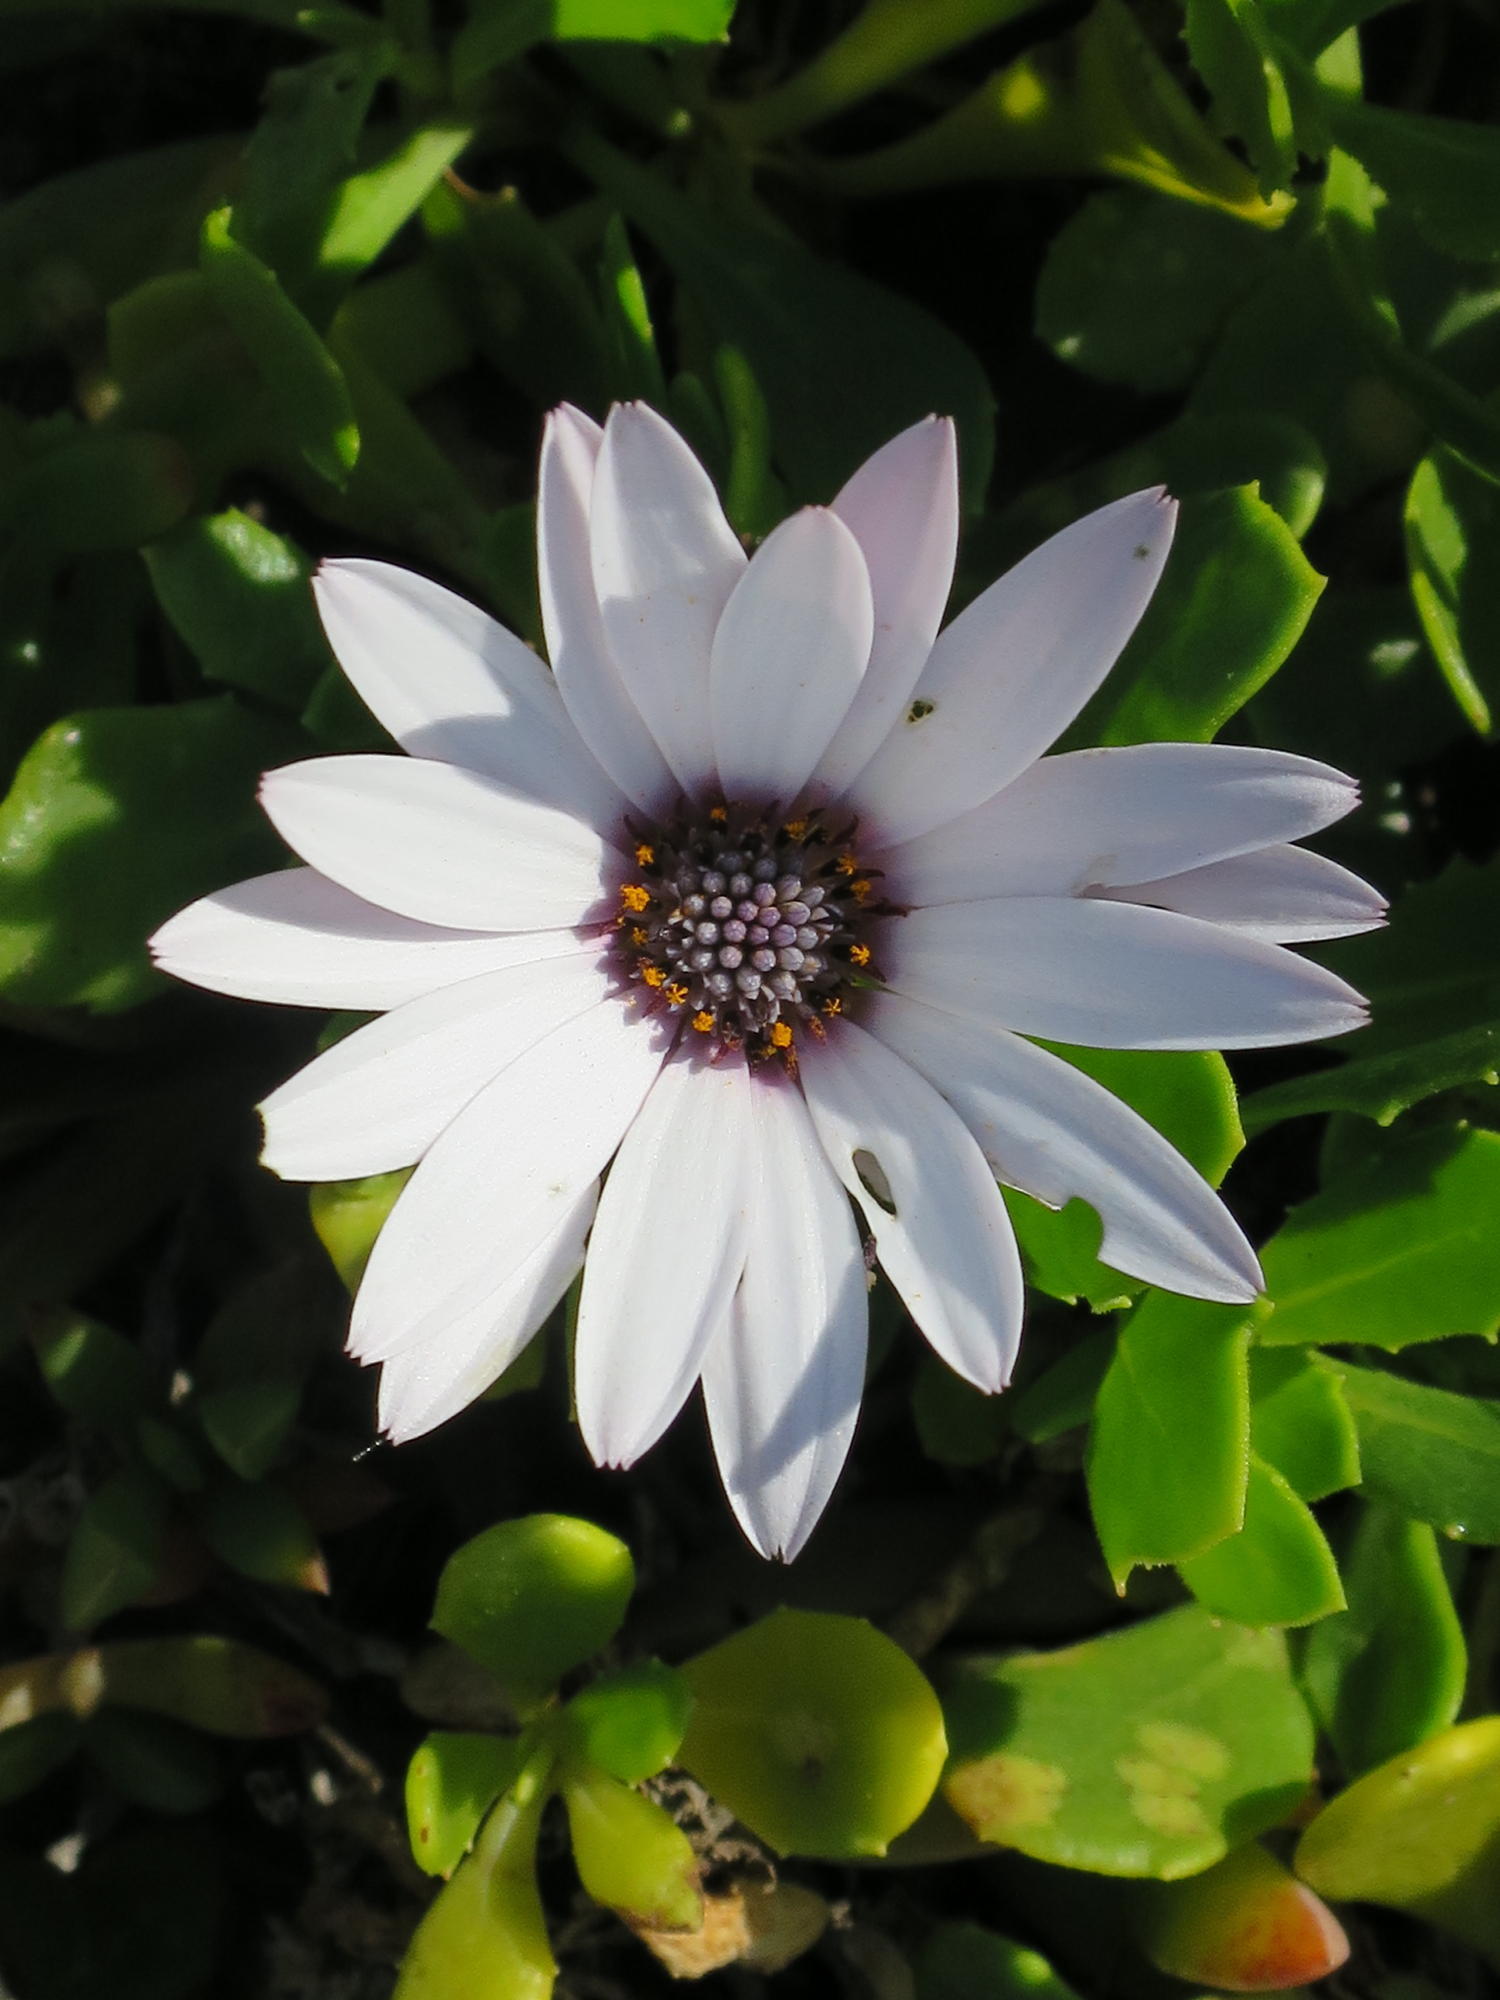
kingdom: Plantae
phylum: Tracheophyta
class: Magnoliopsida
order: Asterales
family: Asteraceae
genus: Dimorphotheca
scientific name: Dimorphotheca fruticosa
